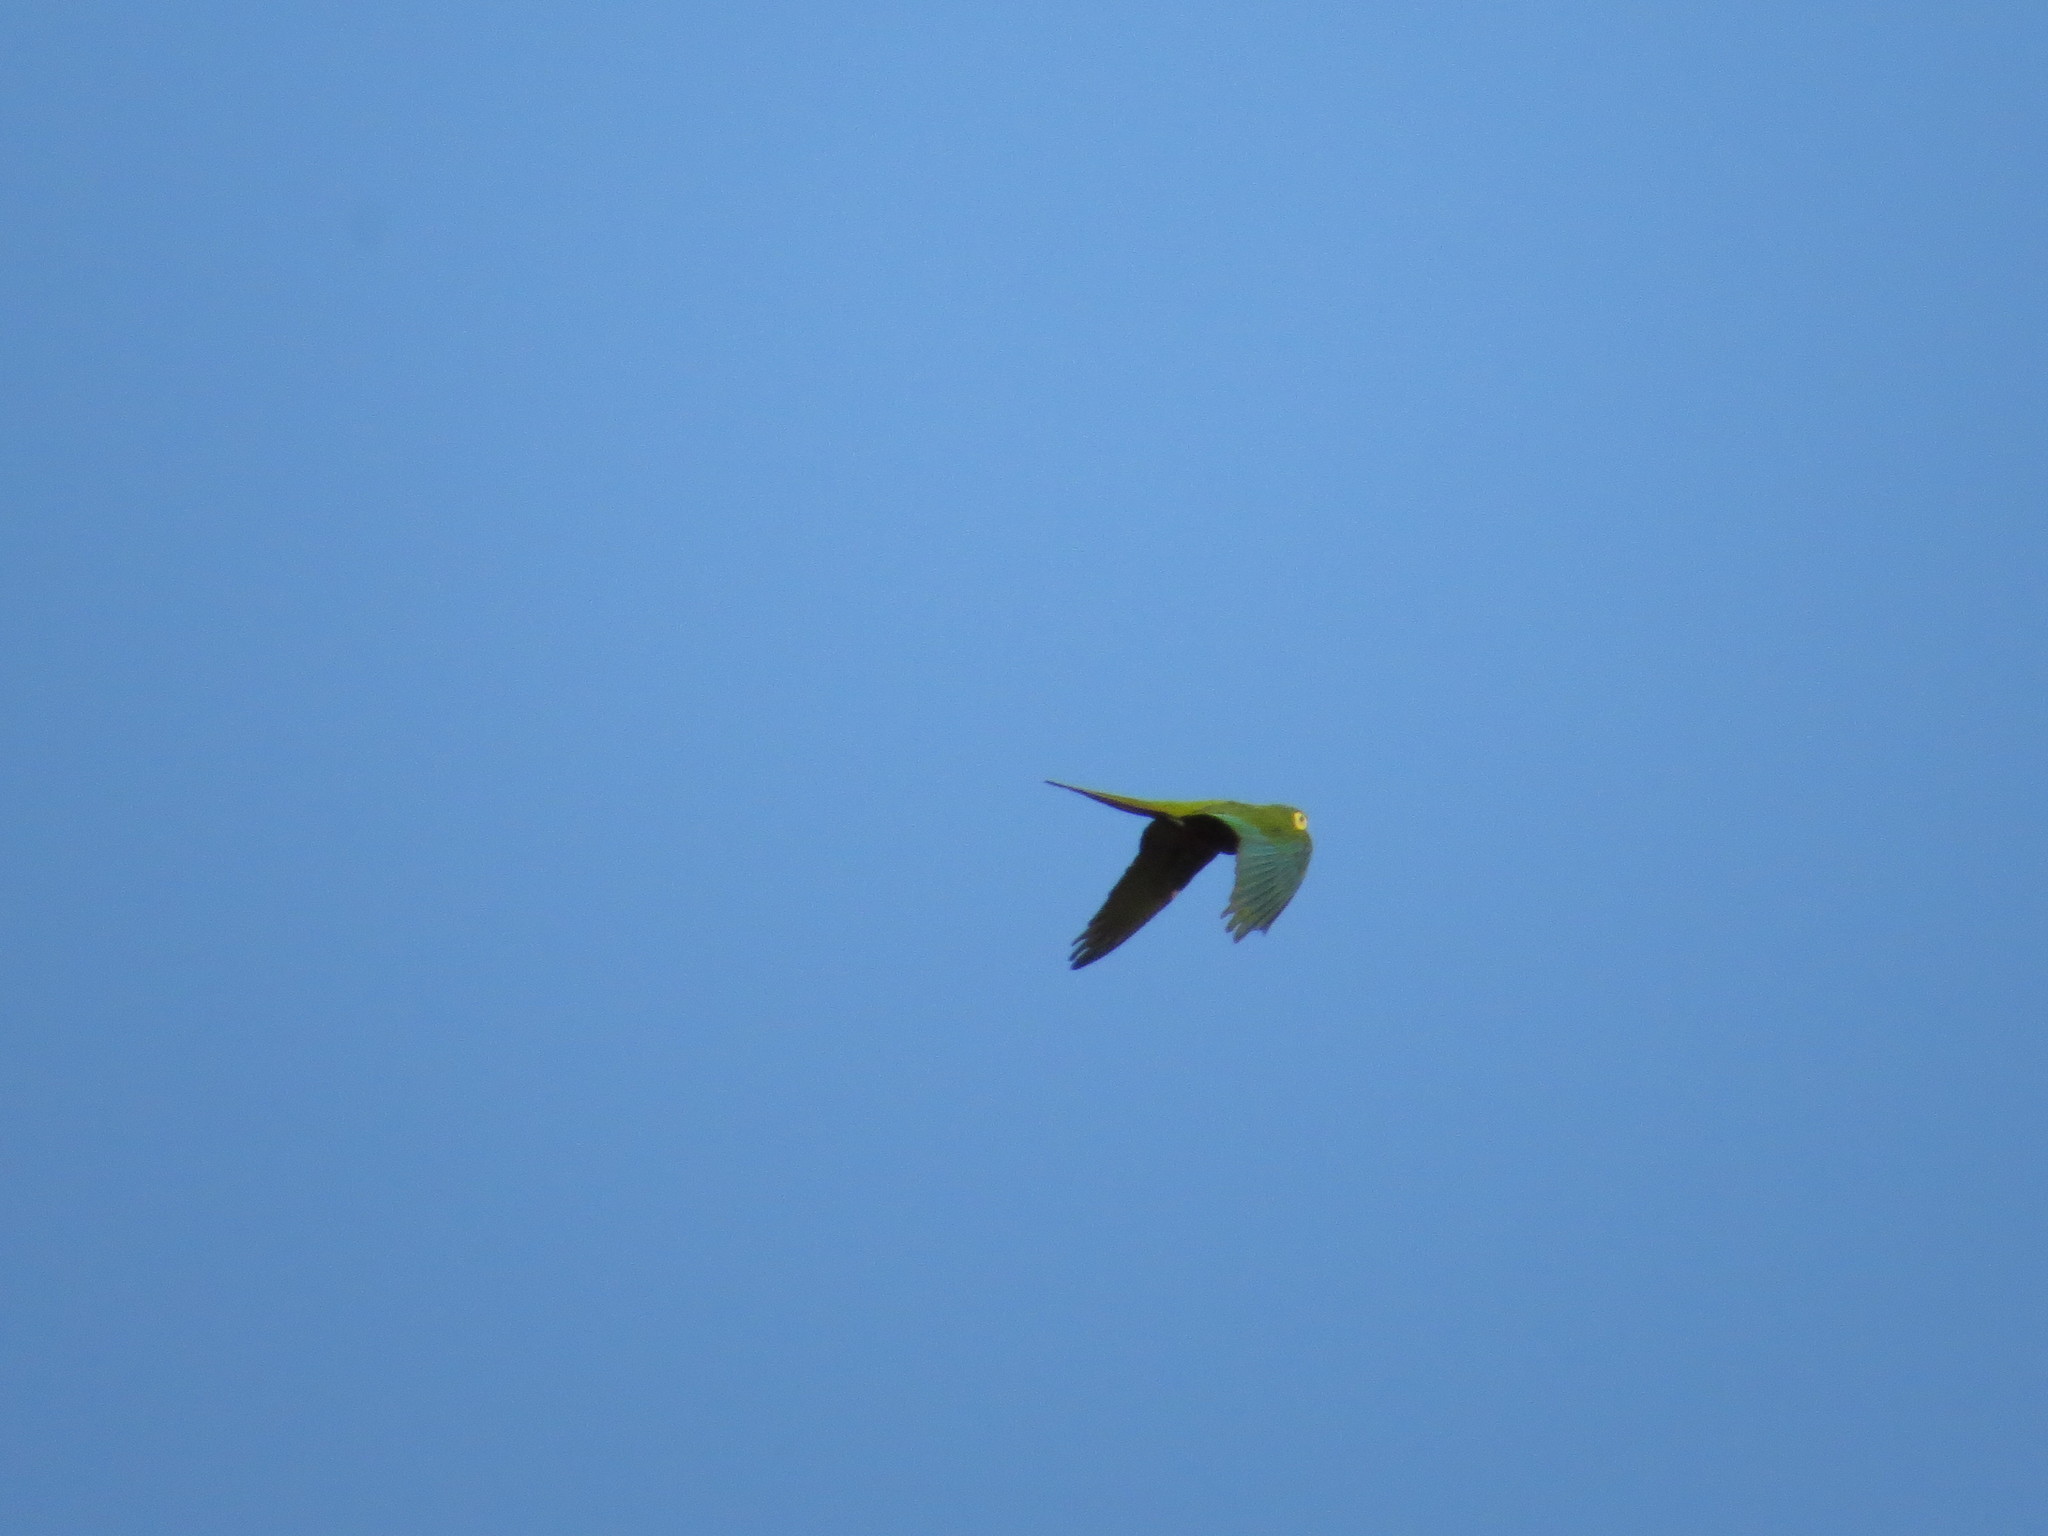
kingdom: Animalia
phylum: Chordata
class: Aves
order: Psittaciformes
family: Psittacidae
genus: Orthopsittaca
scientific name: Orthopsittaca manilata
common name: Red-bellied macaw
